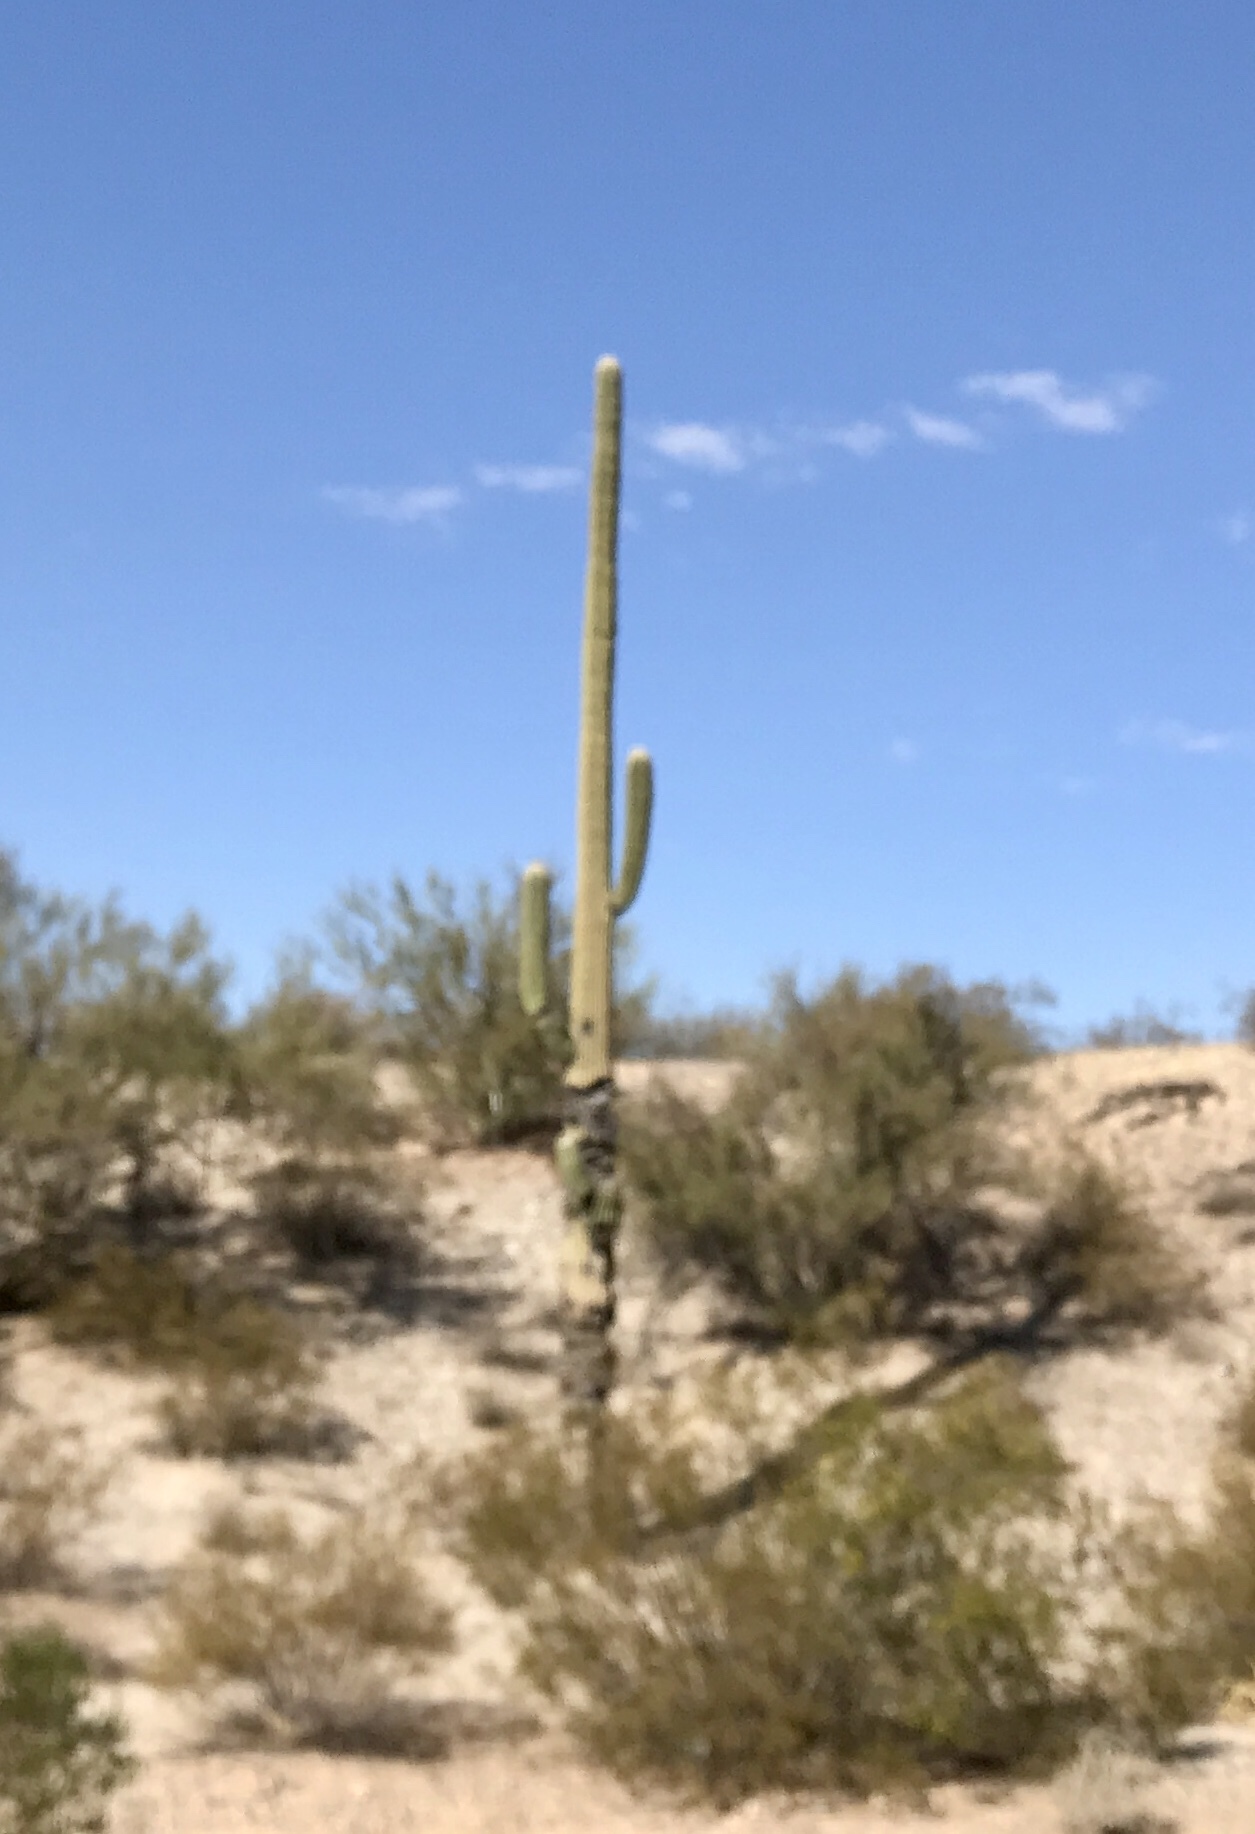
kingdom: Plantae
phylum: Tracheophyta
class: Magnoliopsida
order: Caryophyllales
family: Cactaceae
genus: Carnegiea
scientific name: Carnegiea gigantea
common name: Saguaro
